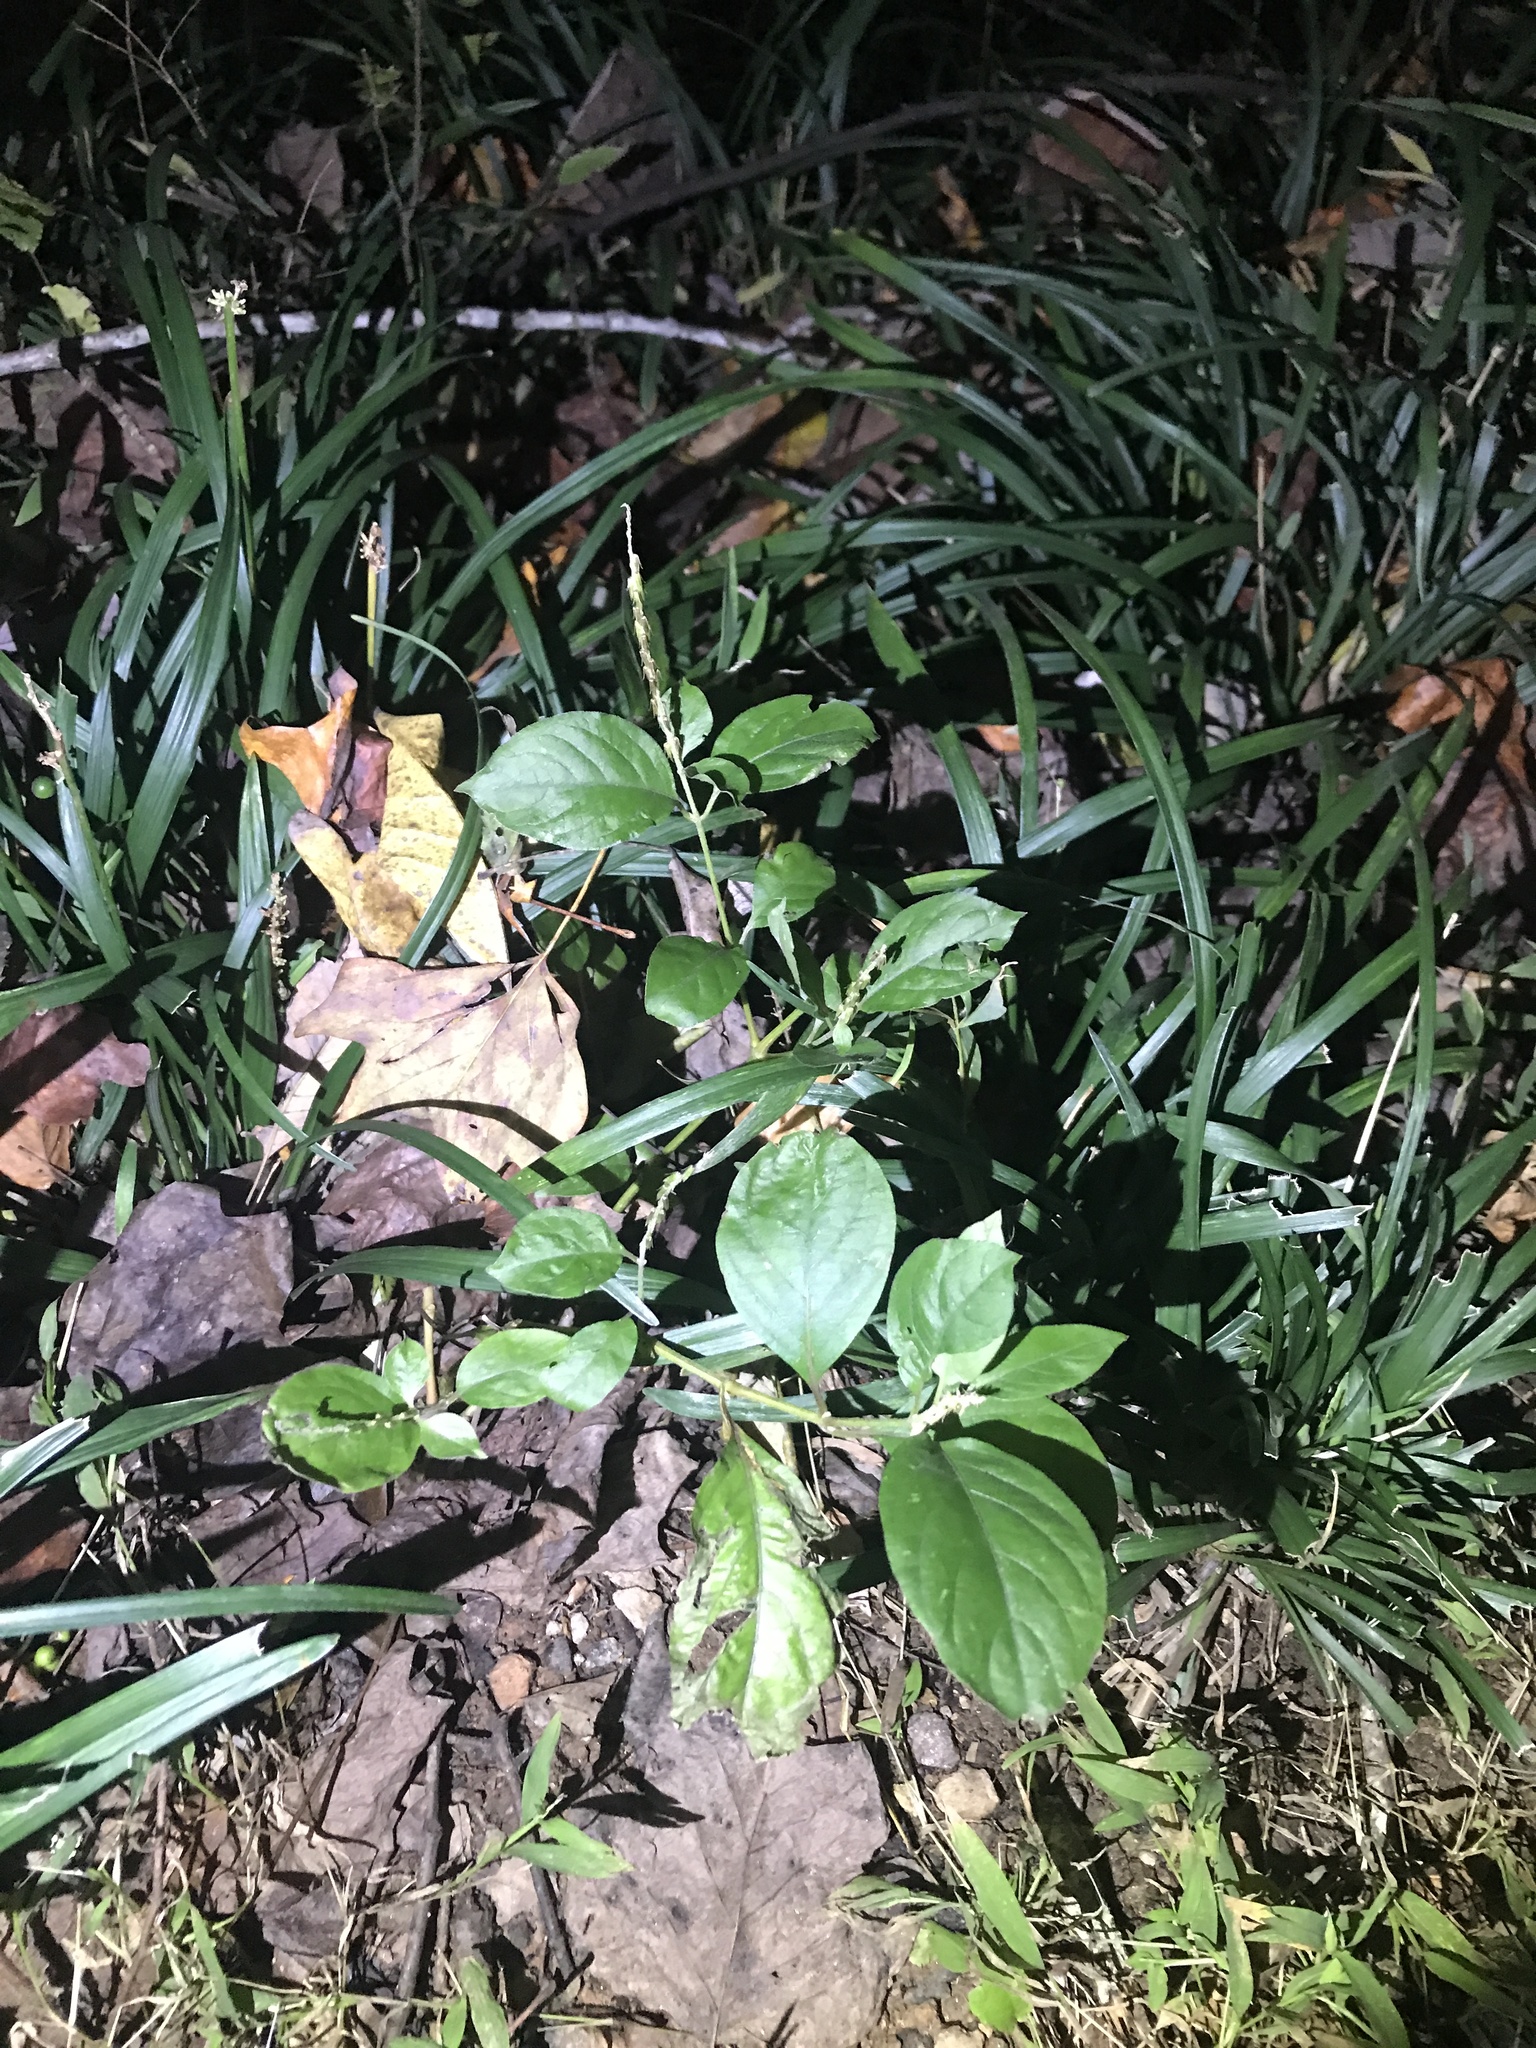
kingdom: Plantae
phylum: Tracheophyta
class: Magnoliopsida
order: Caryophyllales
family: Amaranthaceae
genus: Achyranthes
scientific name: Achyranthes bidentata
